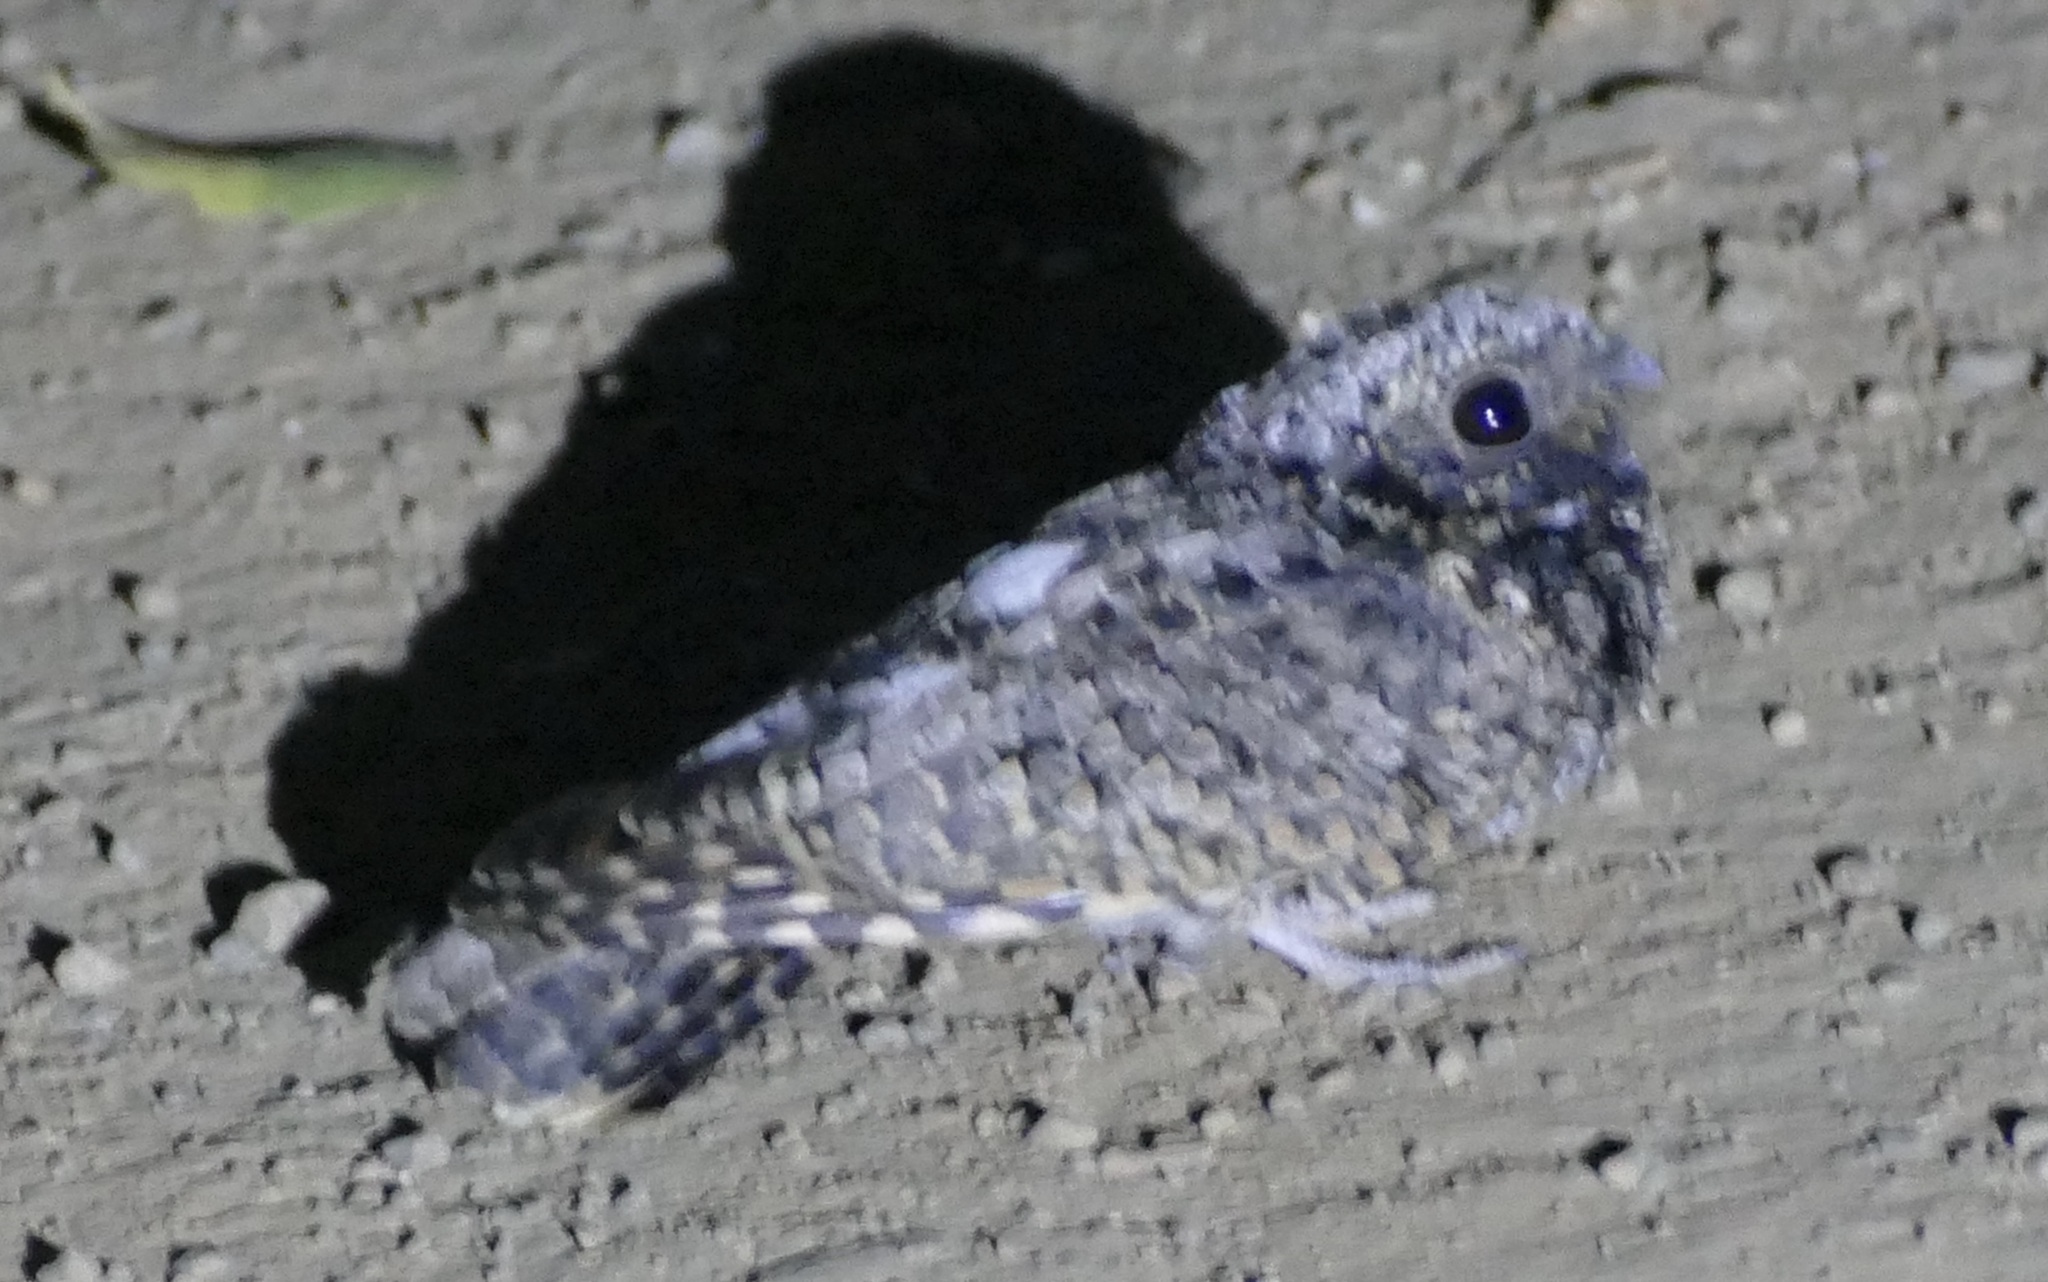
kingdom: Animalia
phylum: Chordata
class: Aves
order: Caprimulgiformes
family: Caprimulgidae
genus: Phalaenoptilus
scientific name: Phalaenoptilus nuttallii
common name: Common poorwill
